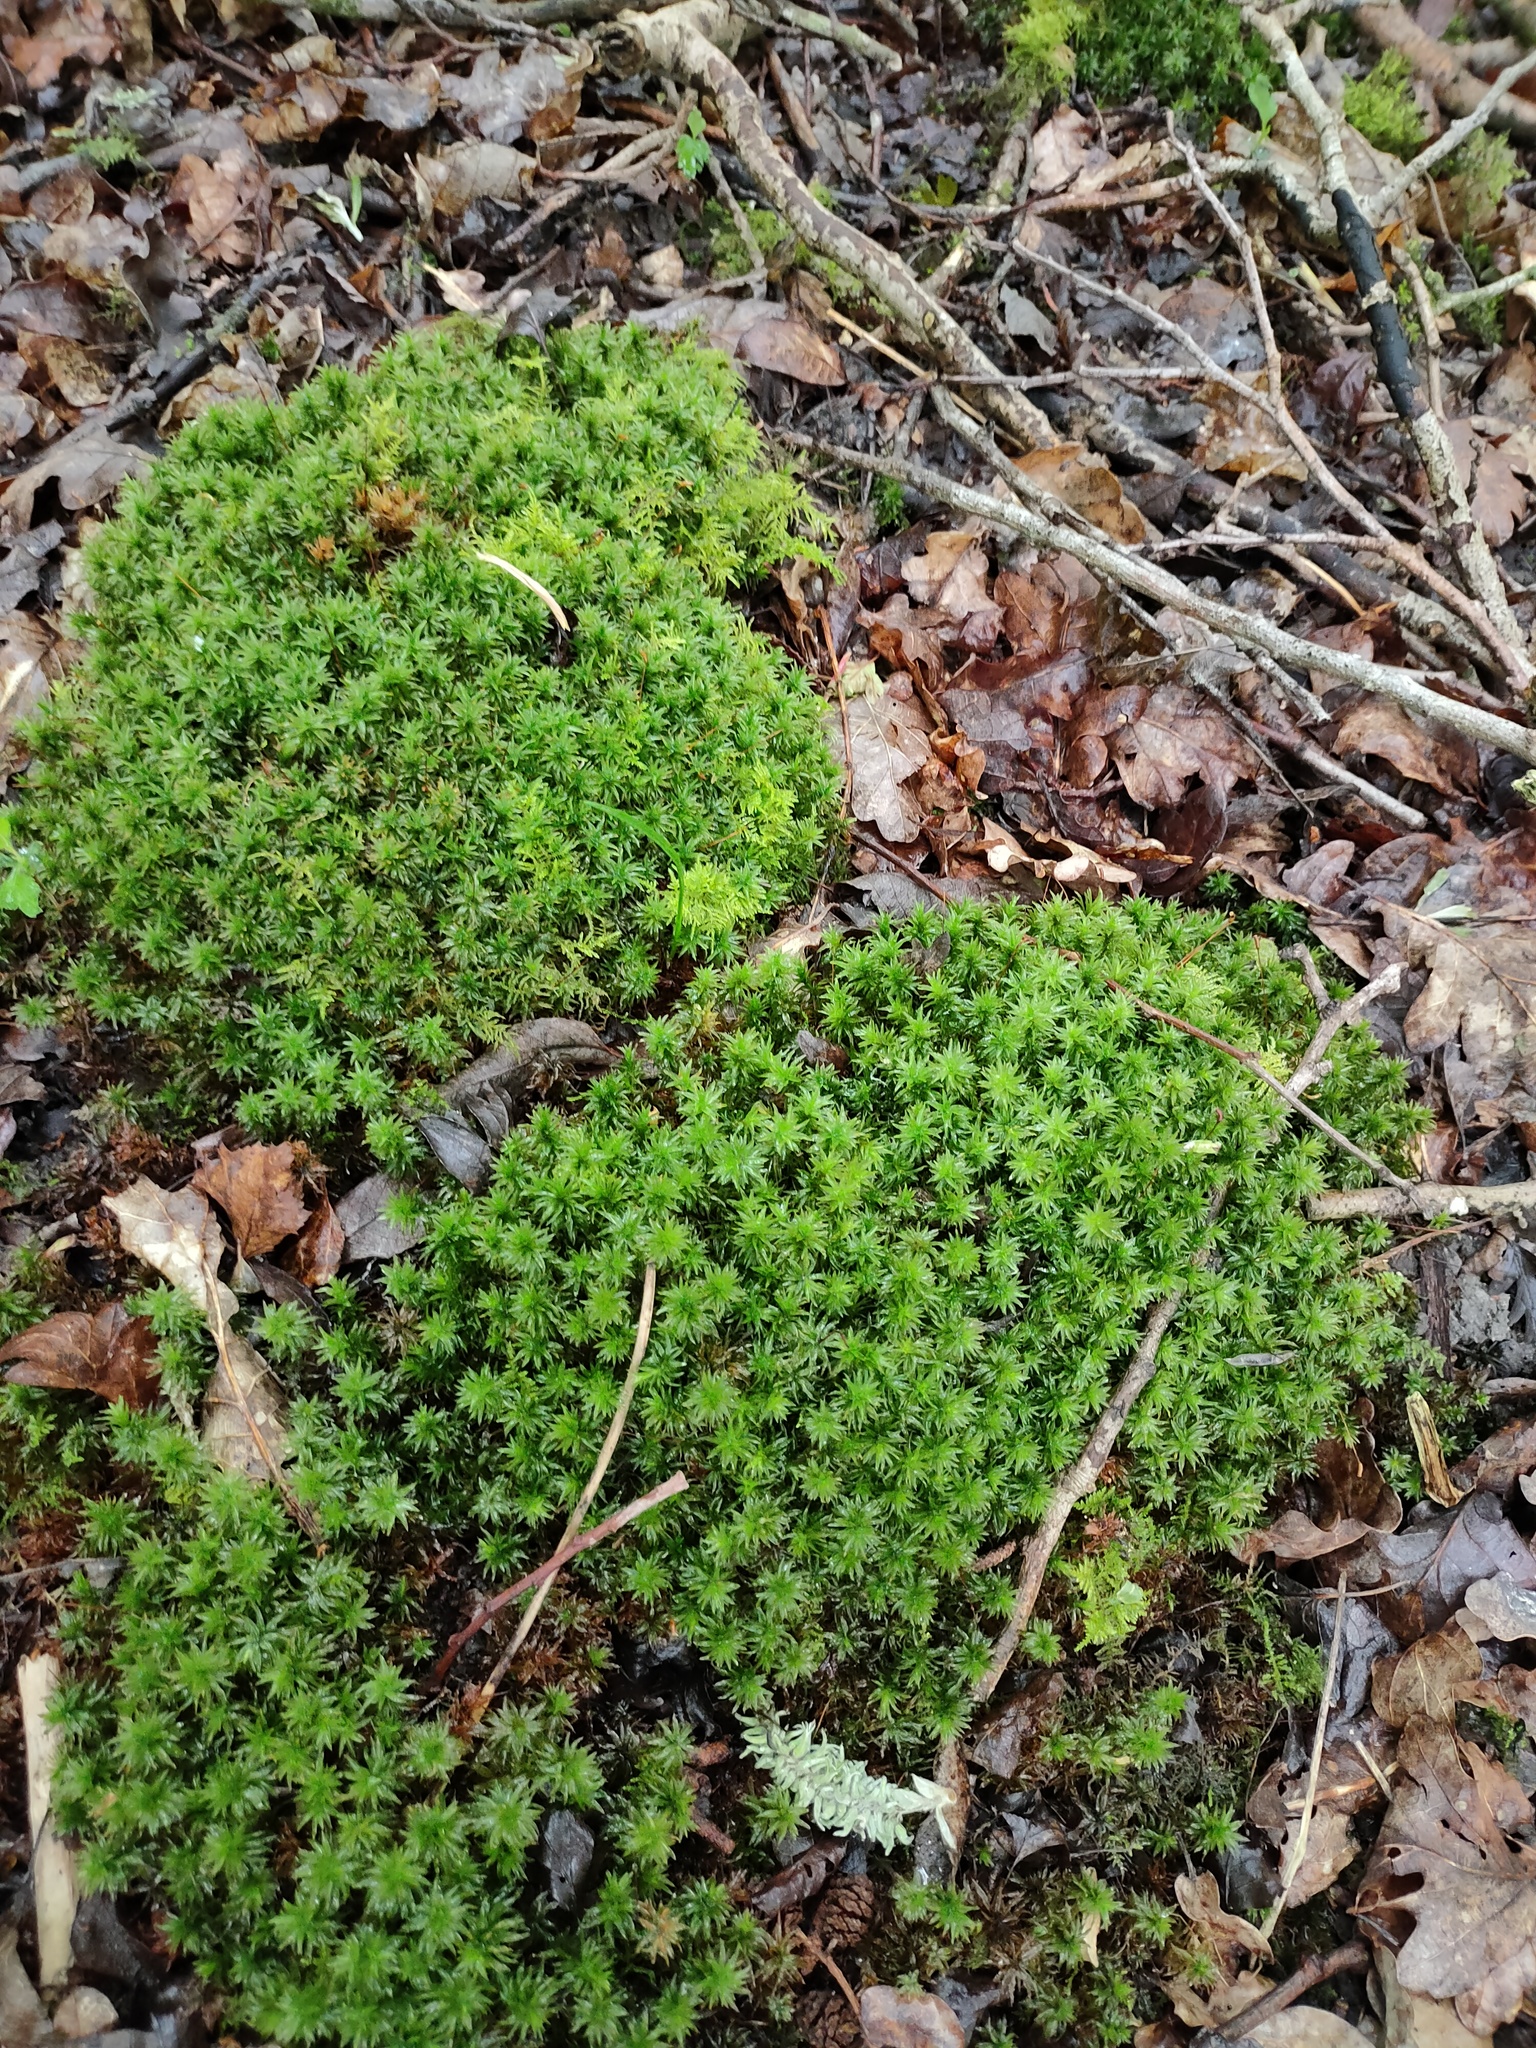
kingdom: Plantae
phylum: Bryophyta
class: Polytrichopsida
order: Polytrichales
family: Polytrichaceae
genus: Atrichum
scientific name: Atrichum undulatum
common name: Common smoothcap
